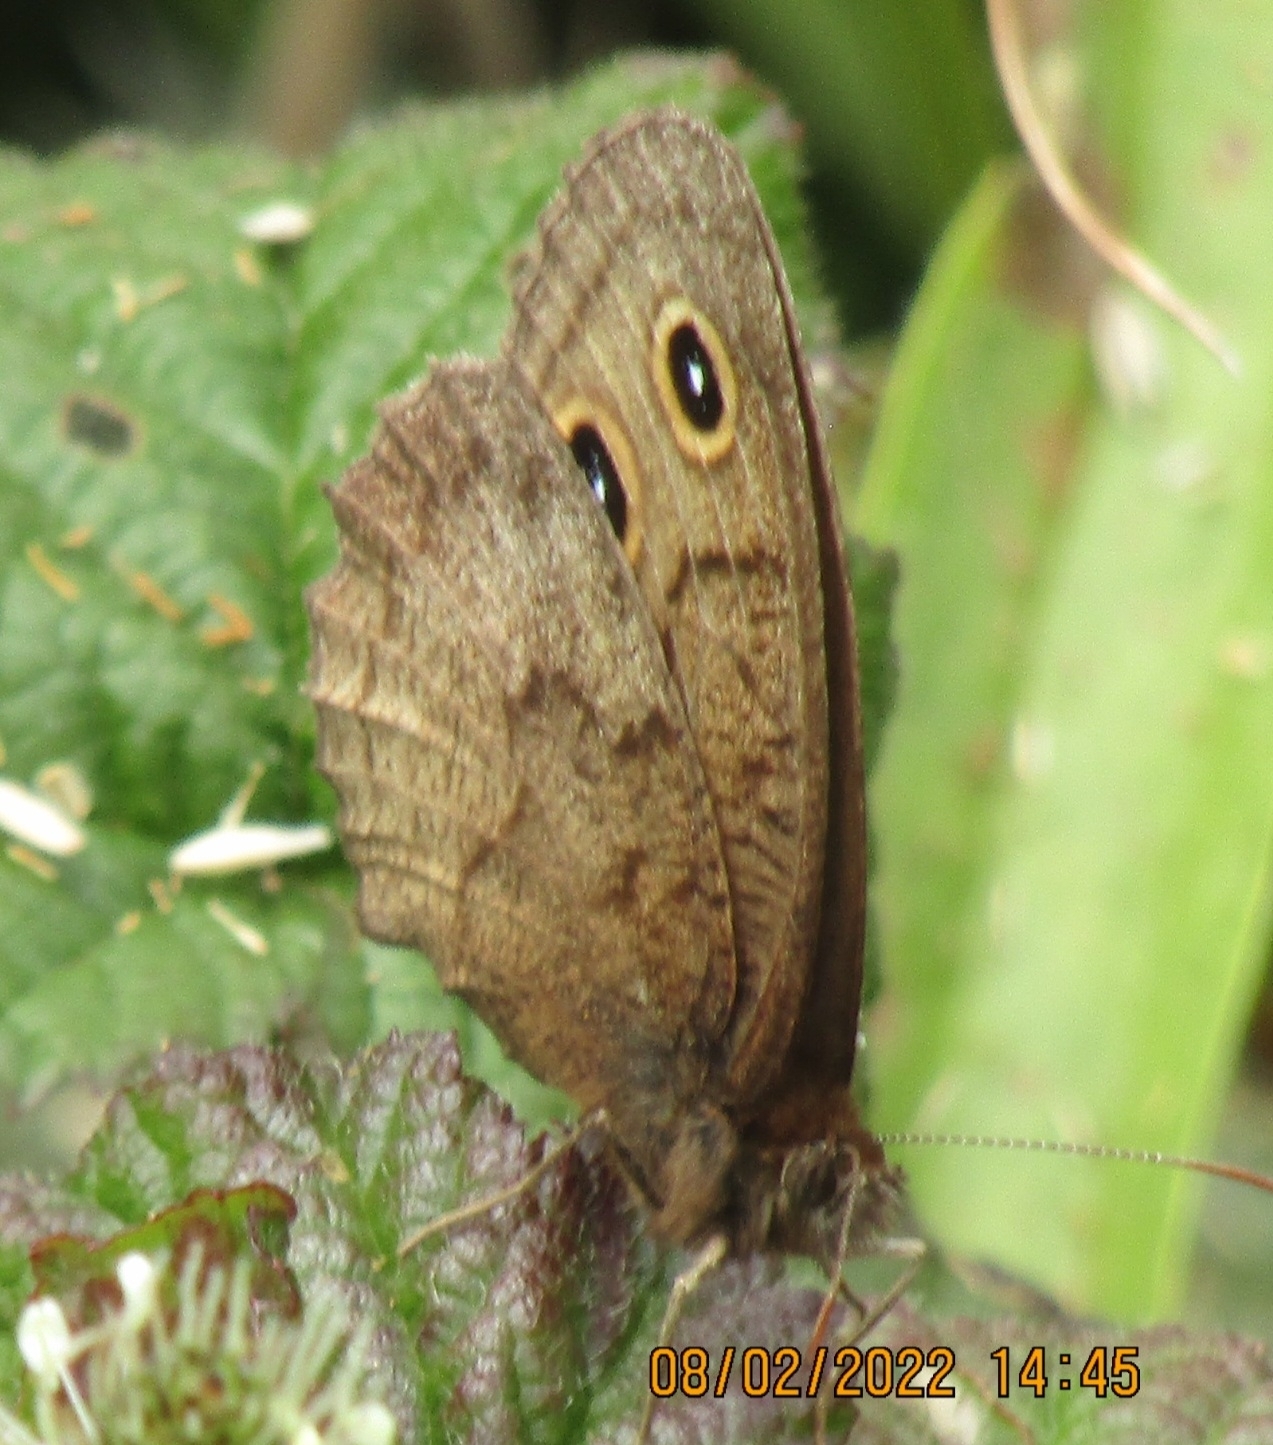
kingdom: Animalia
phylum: Arthropoda
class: Insecta
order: Lepidoptera
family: Nymphalidae
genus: Cercyonis
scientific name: Cercyonis pegala
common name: Common wood-nymph
